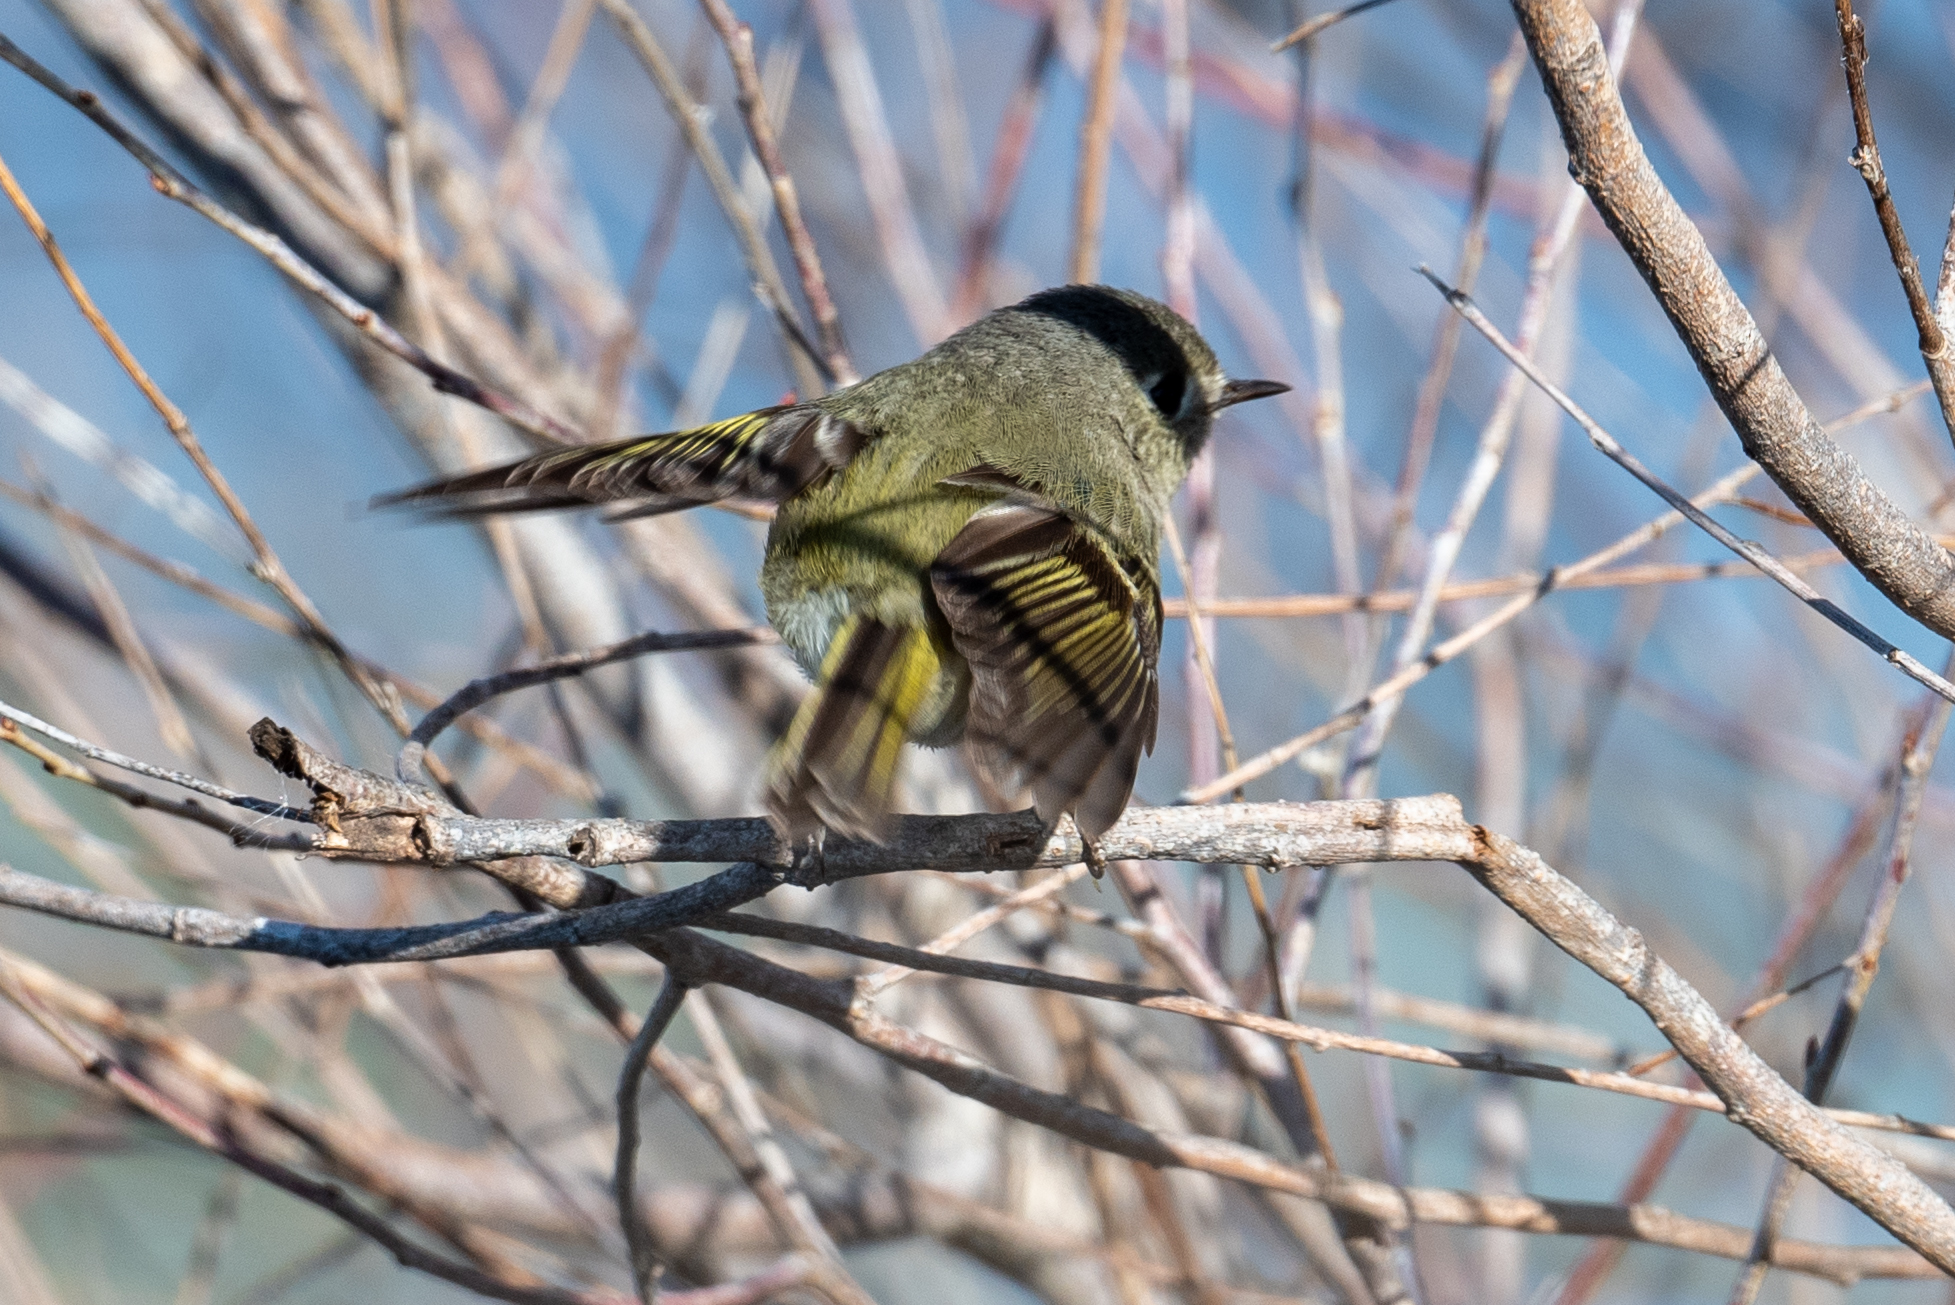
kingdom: Animalia
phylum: Chordata
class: Aves
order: Passeriformes
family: Regulidae
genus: Regulus
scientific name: Regulus calendula
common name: Ruby-crowned kinglet
